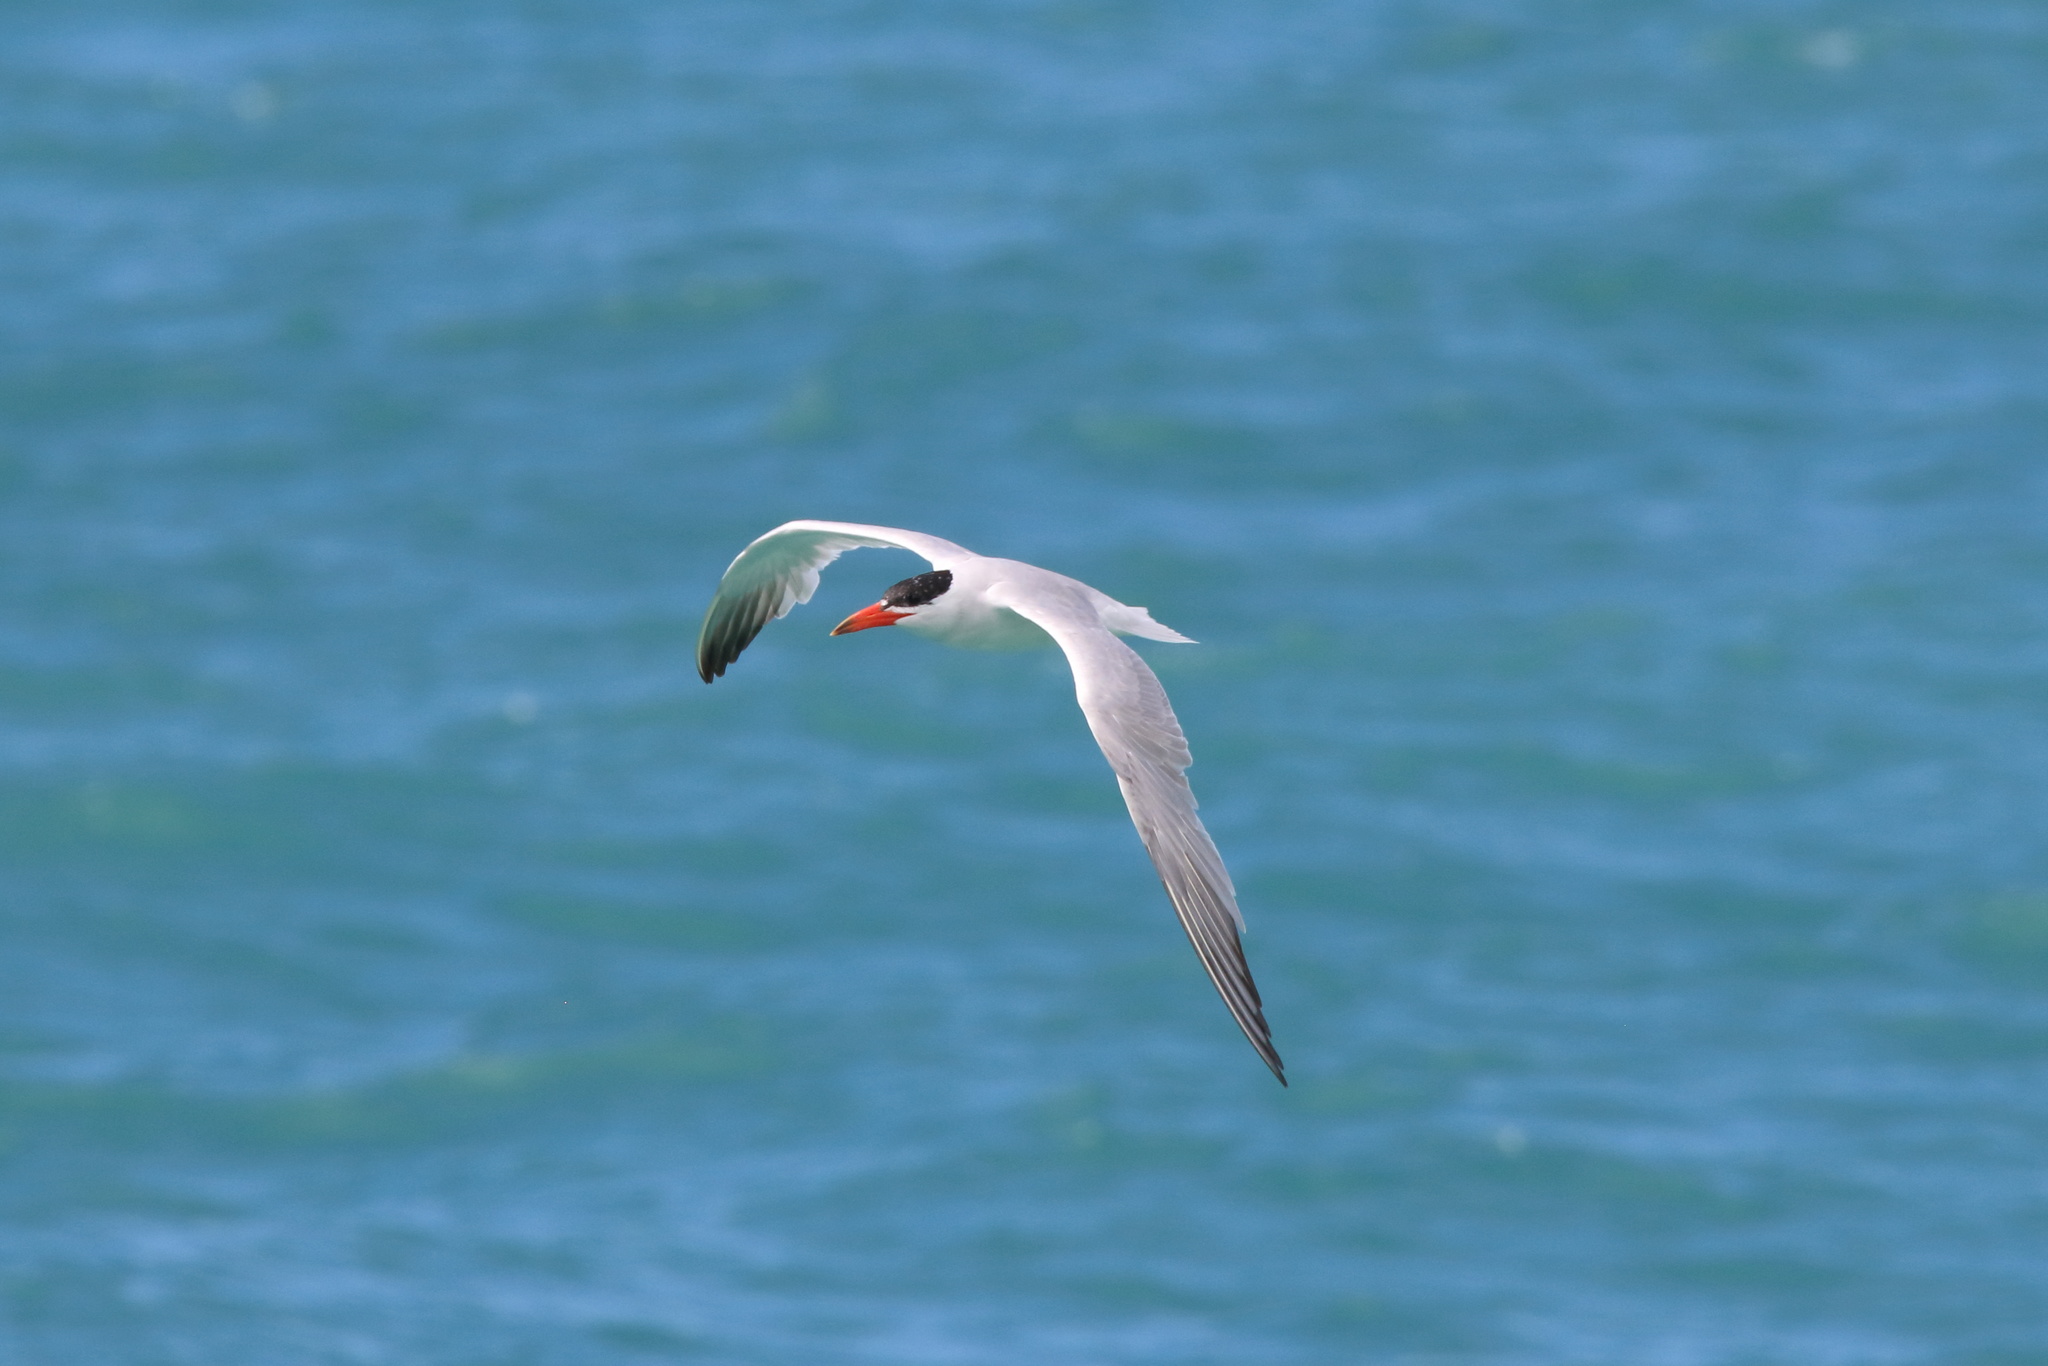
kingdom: Animalia
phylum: Chordata
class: Aves
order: Charadriiformes
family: Laridae
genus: Hydroprogne
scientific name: Hydroprogne caspia
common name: Caspian tern
